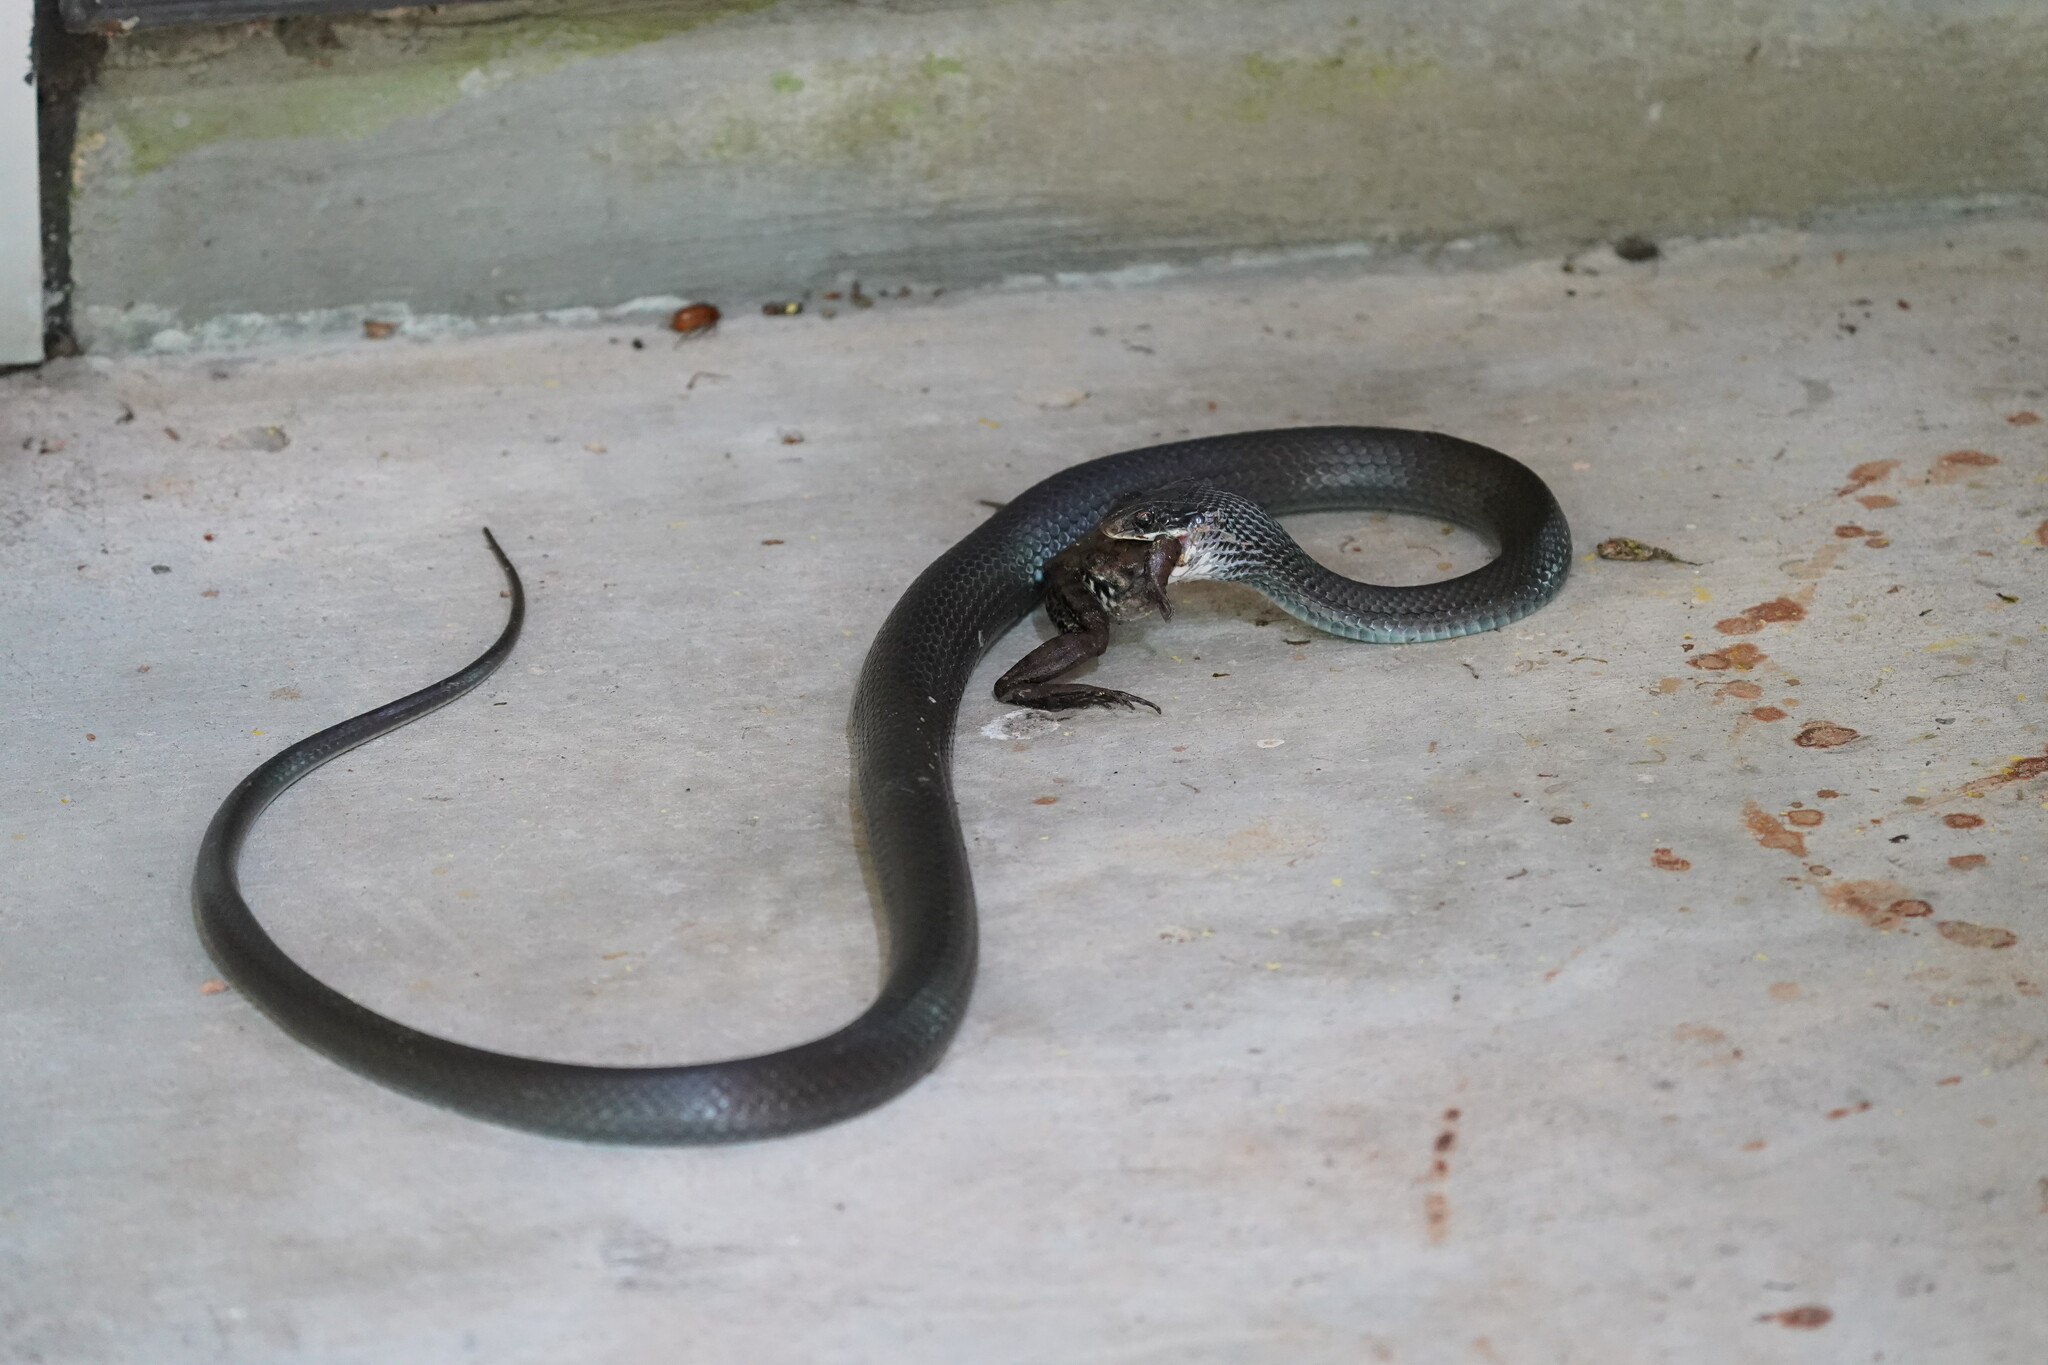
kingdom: Animalia
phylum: Chordata
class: Squamata
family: Colubridae
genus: Coluber
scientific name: Coluber constrictor
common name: Eastern racer
